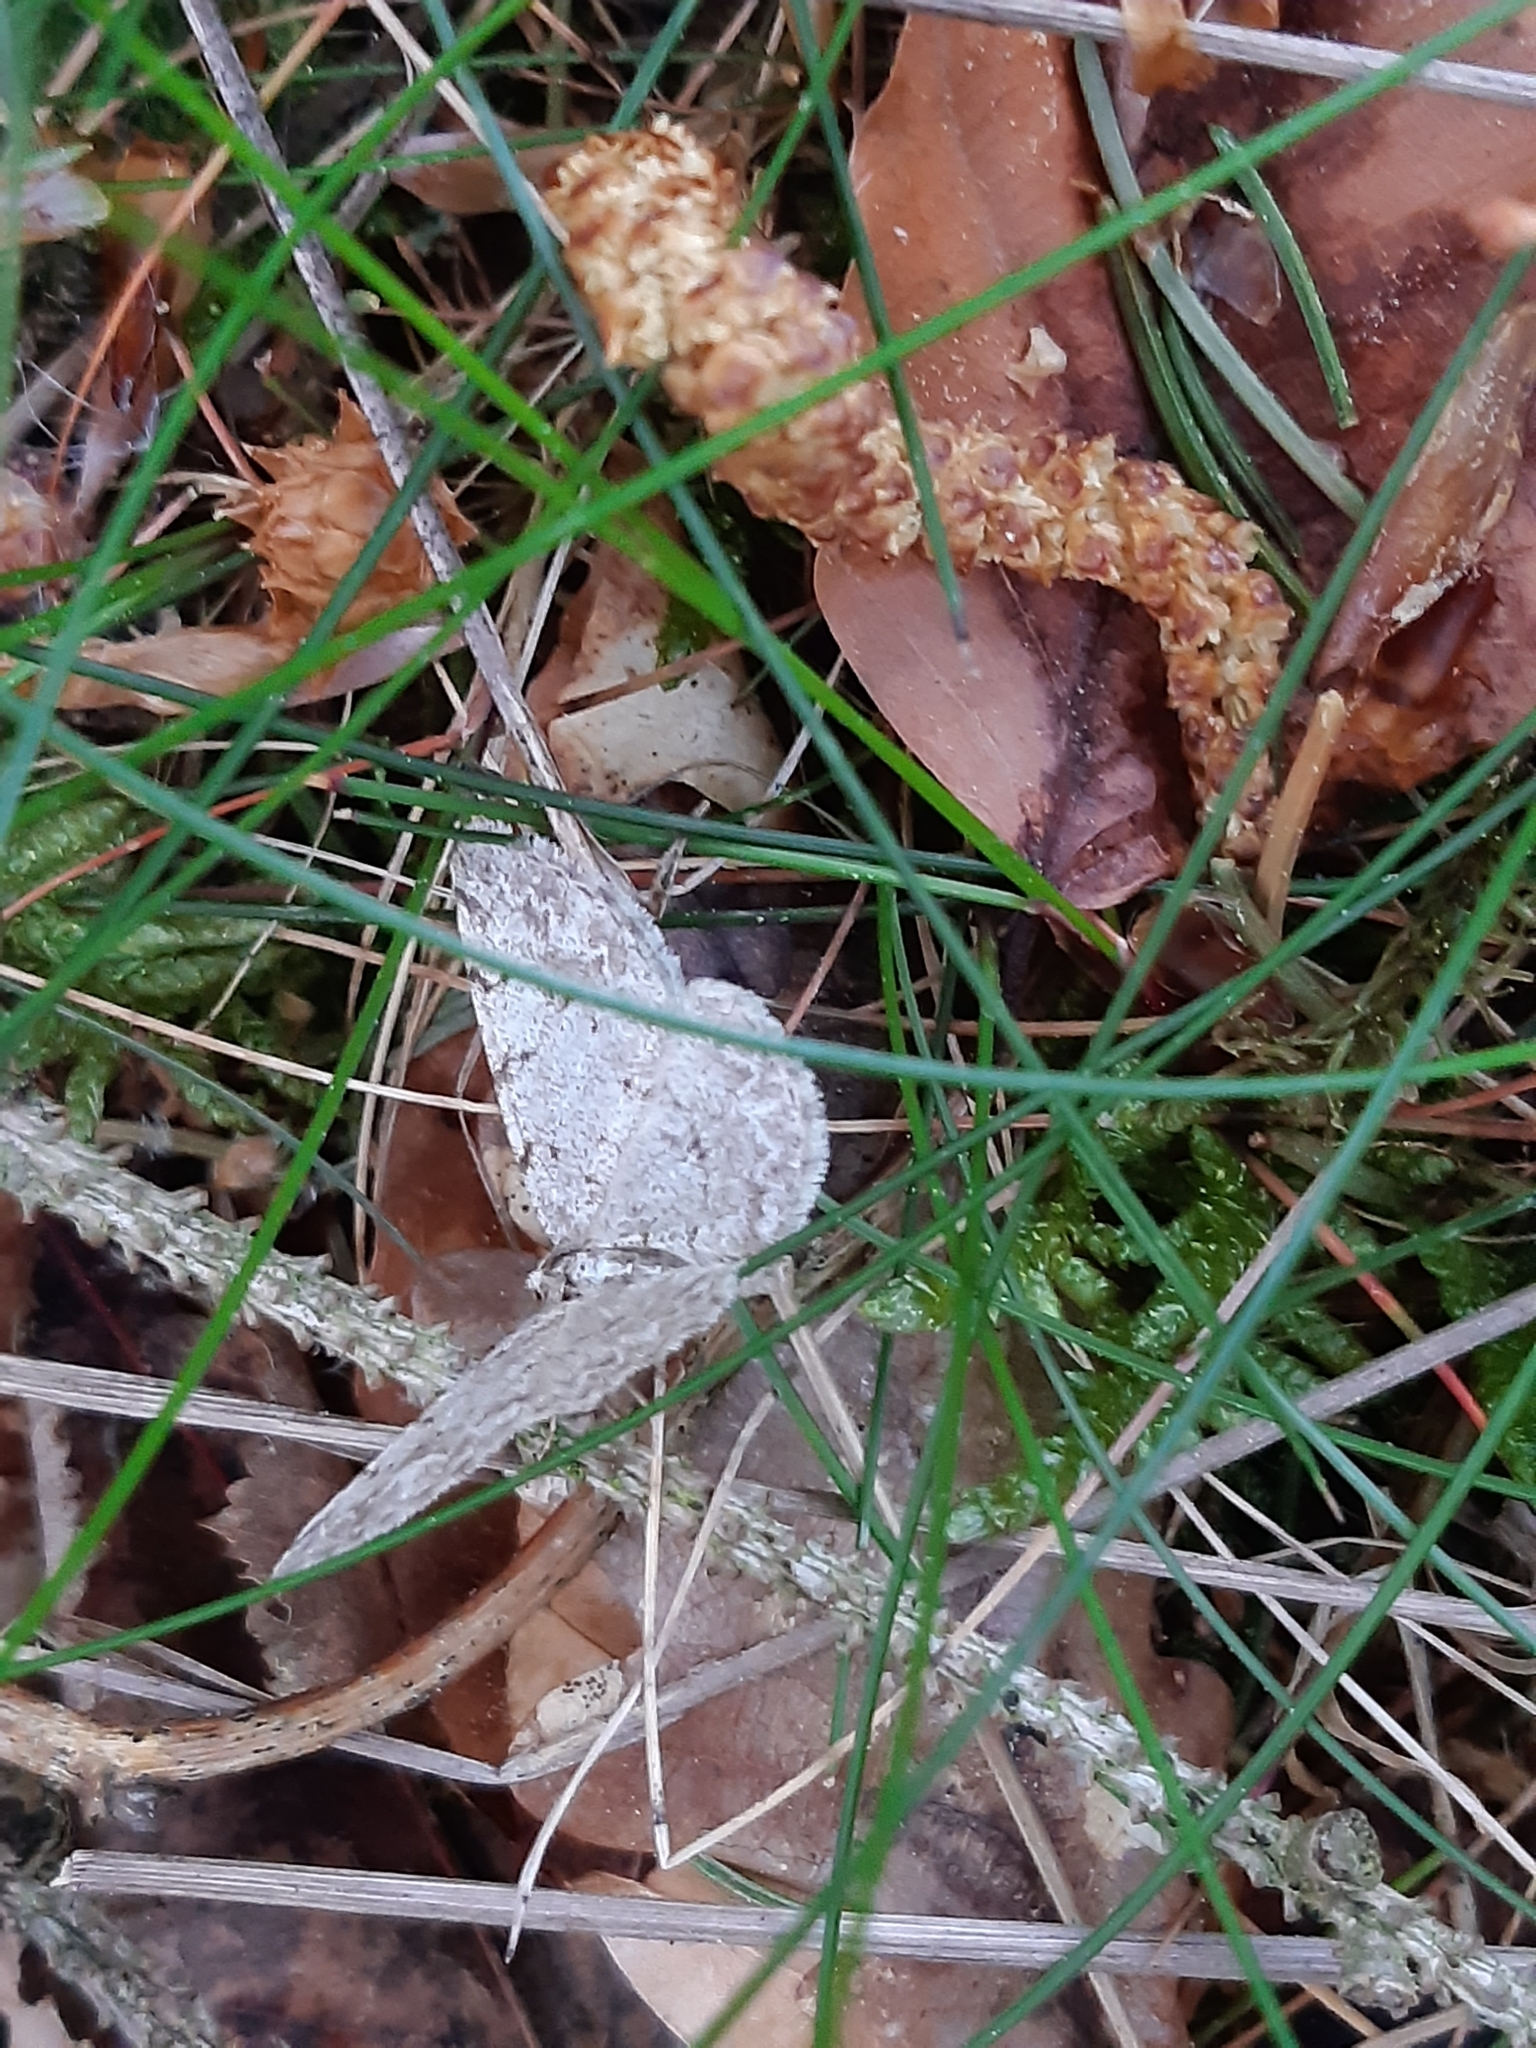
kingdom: Animalia
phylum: Arthropoda
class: Insecta
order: Lepidoptera
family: Geometridae
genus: Aethalura
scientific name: Aethalura punctulata
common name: Grey birch
